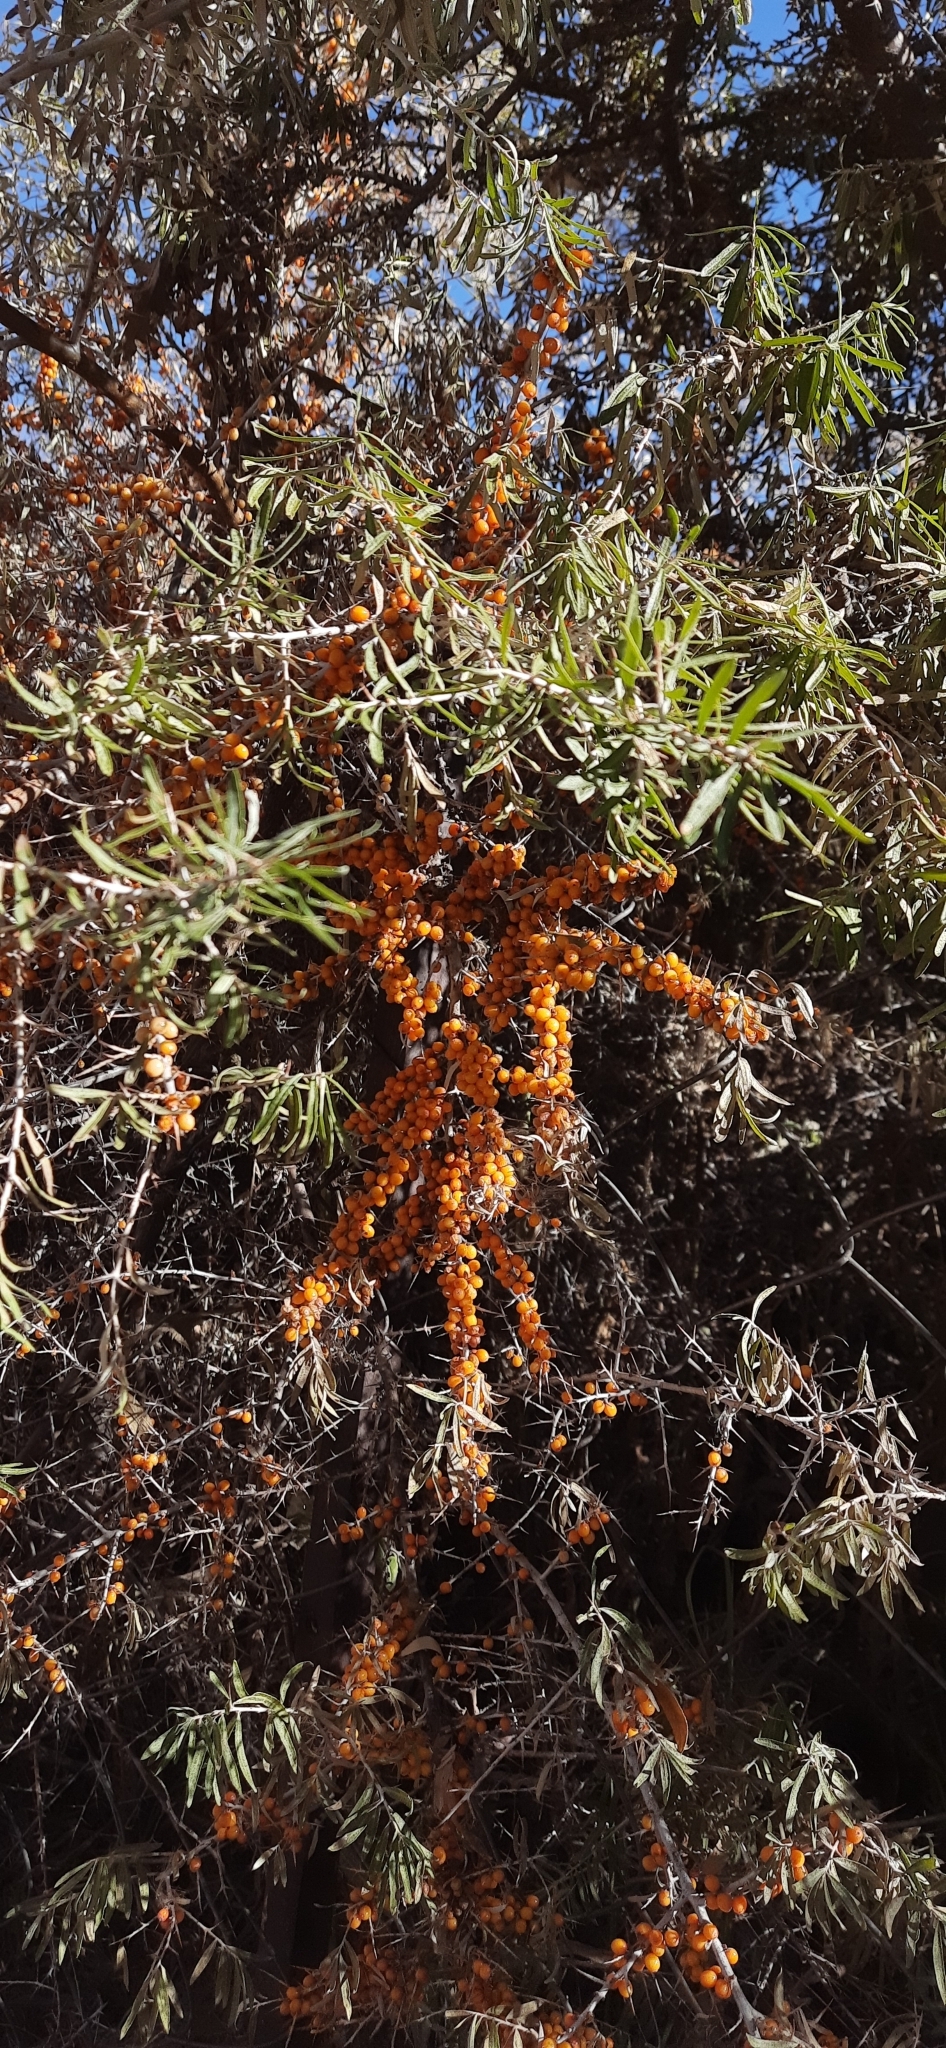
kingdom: Plantae
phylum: Tracheophyta
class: Magnoliopsida
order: Rosales
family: Elaeagnaceae
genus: Hippophae
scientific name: Hippophae rhamnoides
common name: Sea-buckthorn
